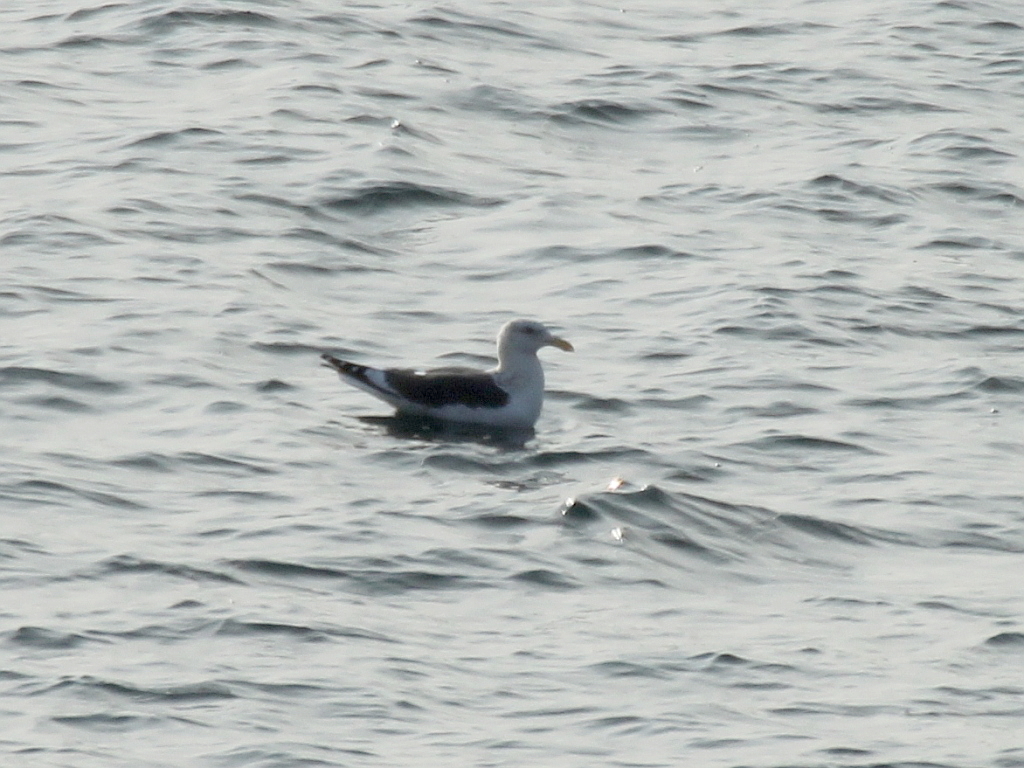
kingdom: Animalia
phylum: Chordata
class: Aves
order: Charadriiformes
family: Laridae
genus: Larus
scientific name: Larus schistisagus
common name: Slaty-backed gull
